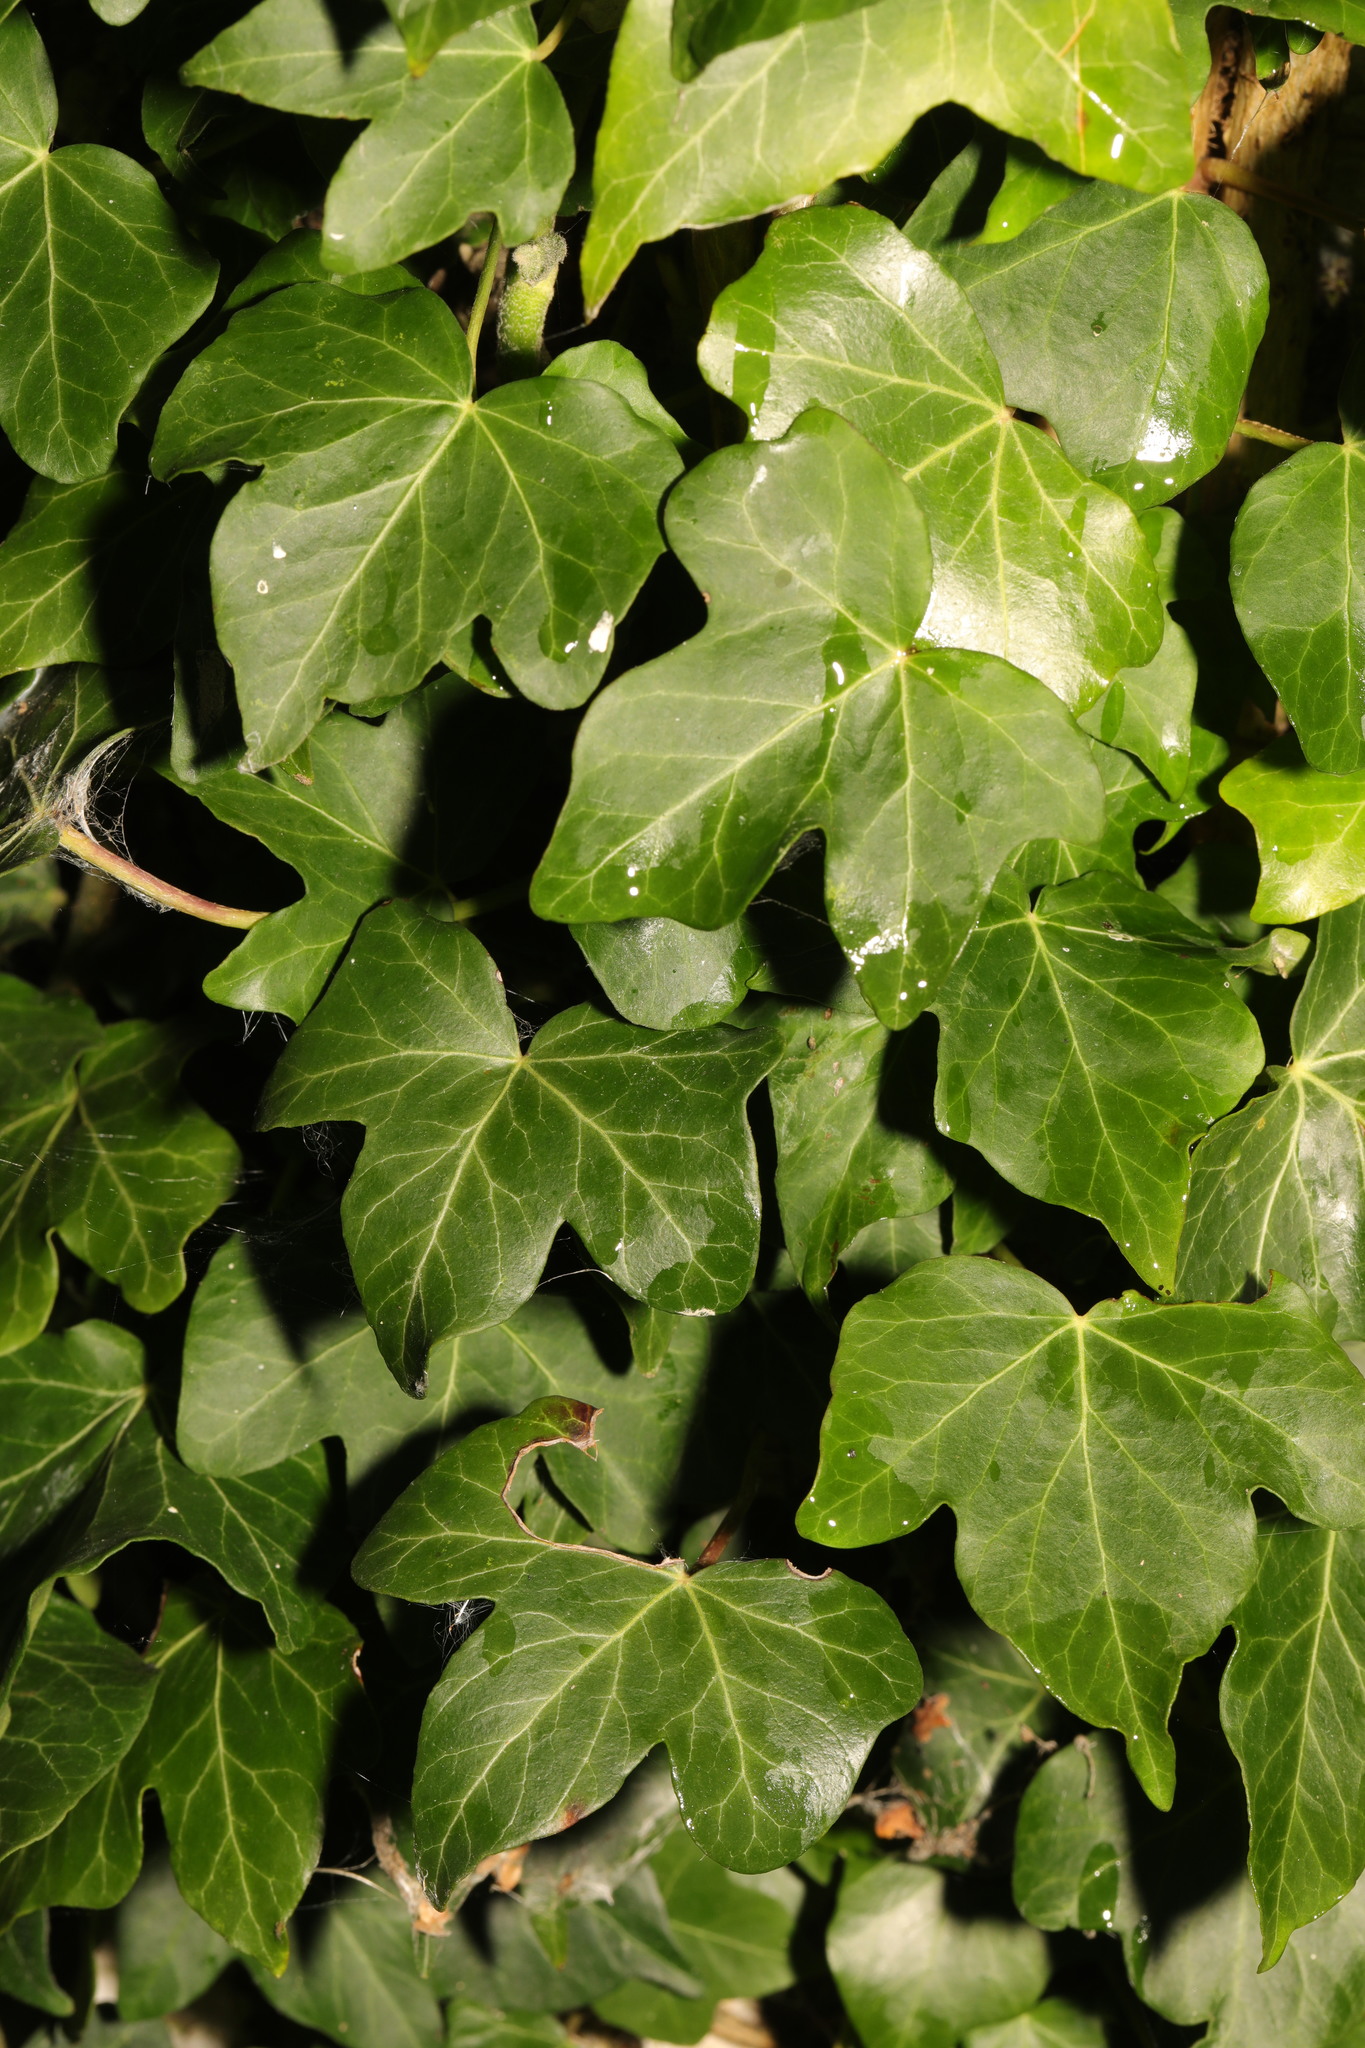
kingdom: Plantae
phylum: Tracheophyta
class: Magnoliopsida
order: Apiales
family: Araliaceae
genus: Hedera
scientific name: Hedera helix
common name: Ivy
